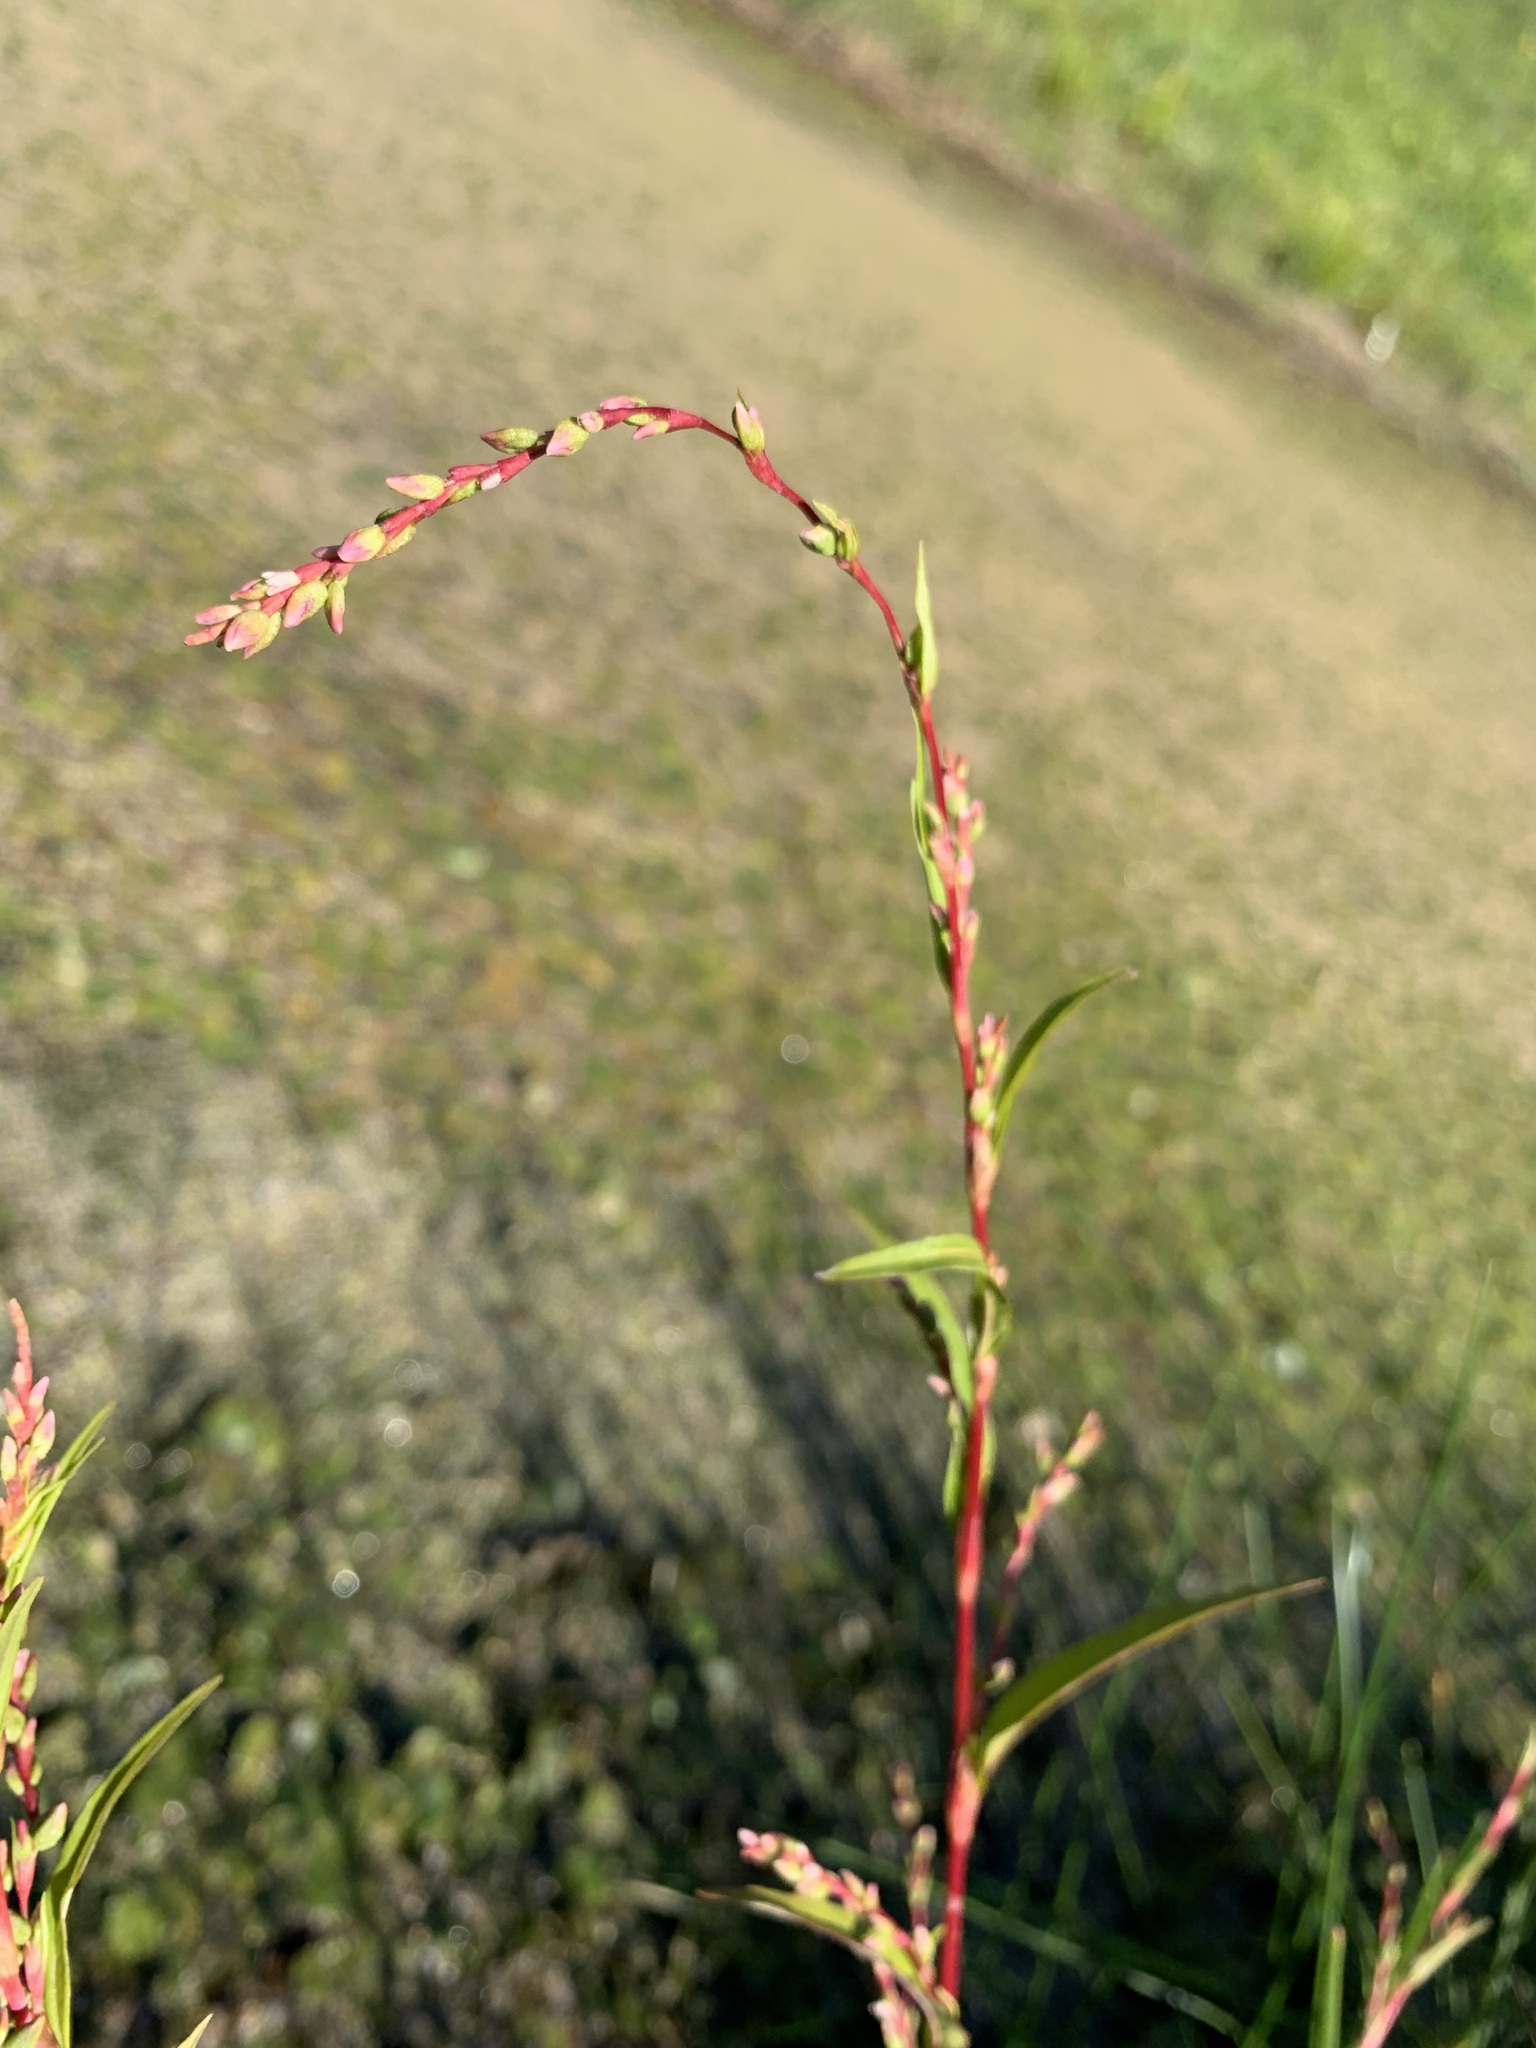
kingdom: Plantae
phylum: Tracheophyta
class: Magnoliopsida
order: Caryophyllales
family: Polygonaceae
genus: Persicaria
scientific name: Persicaria hydropiper
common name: Water-pepper
